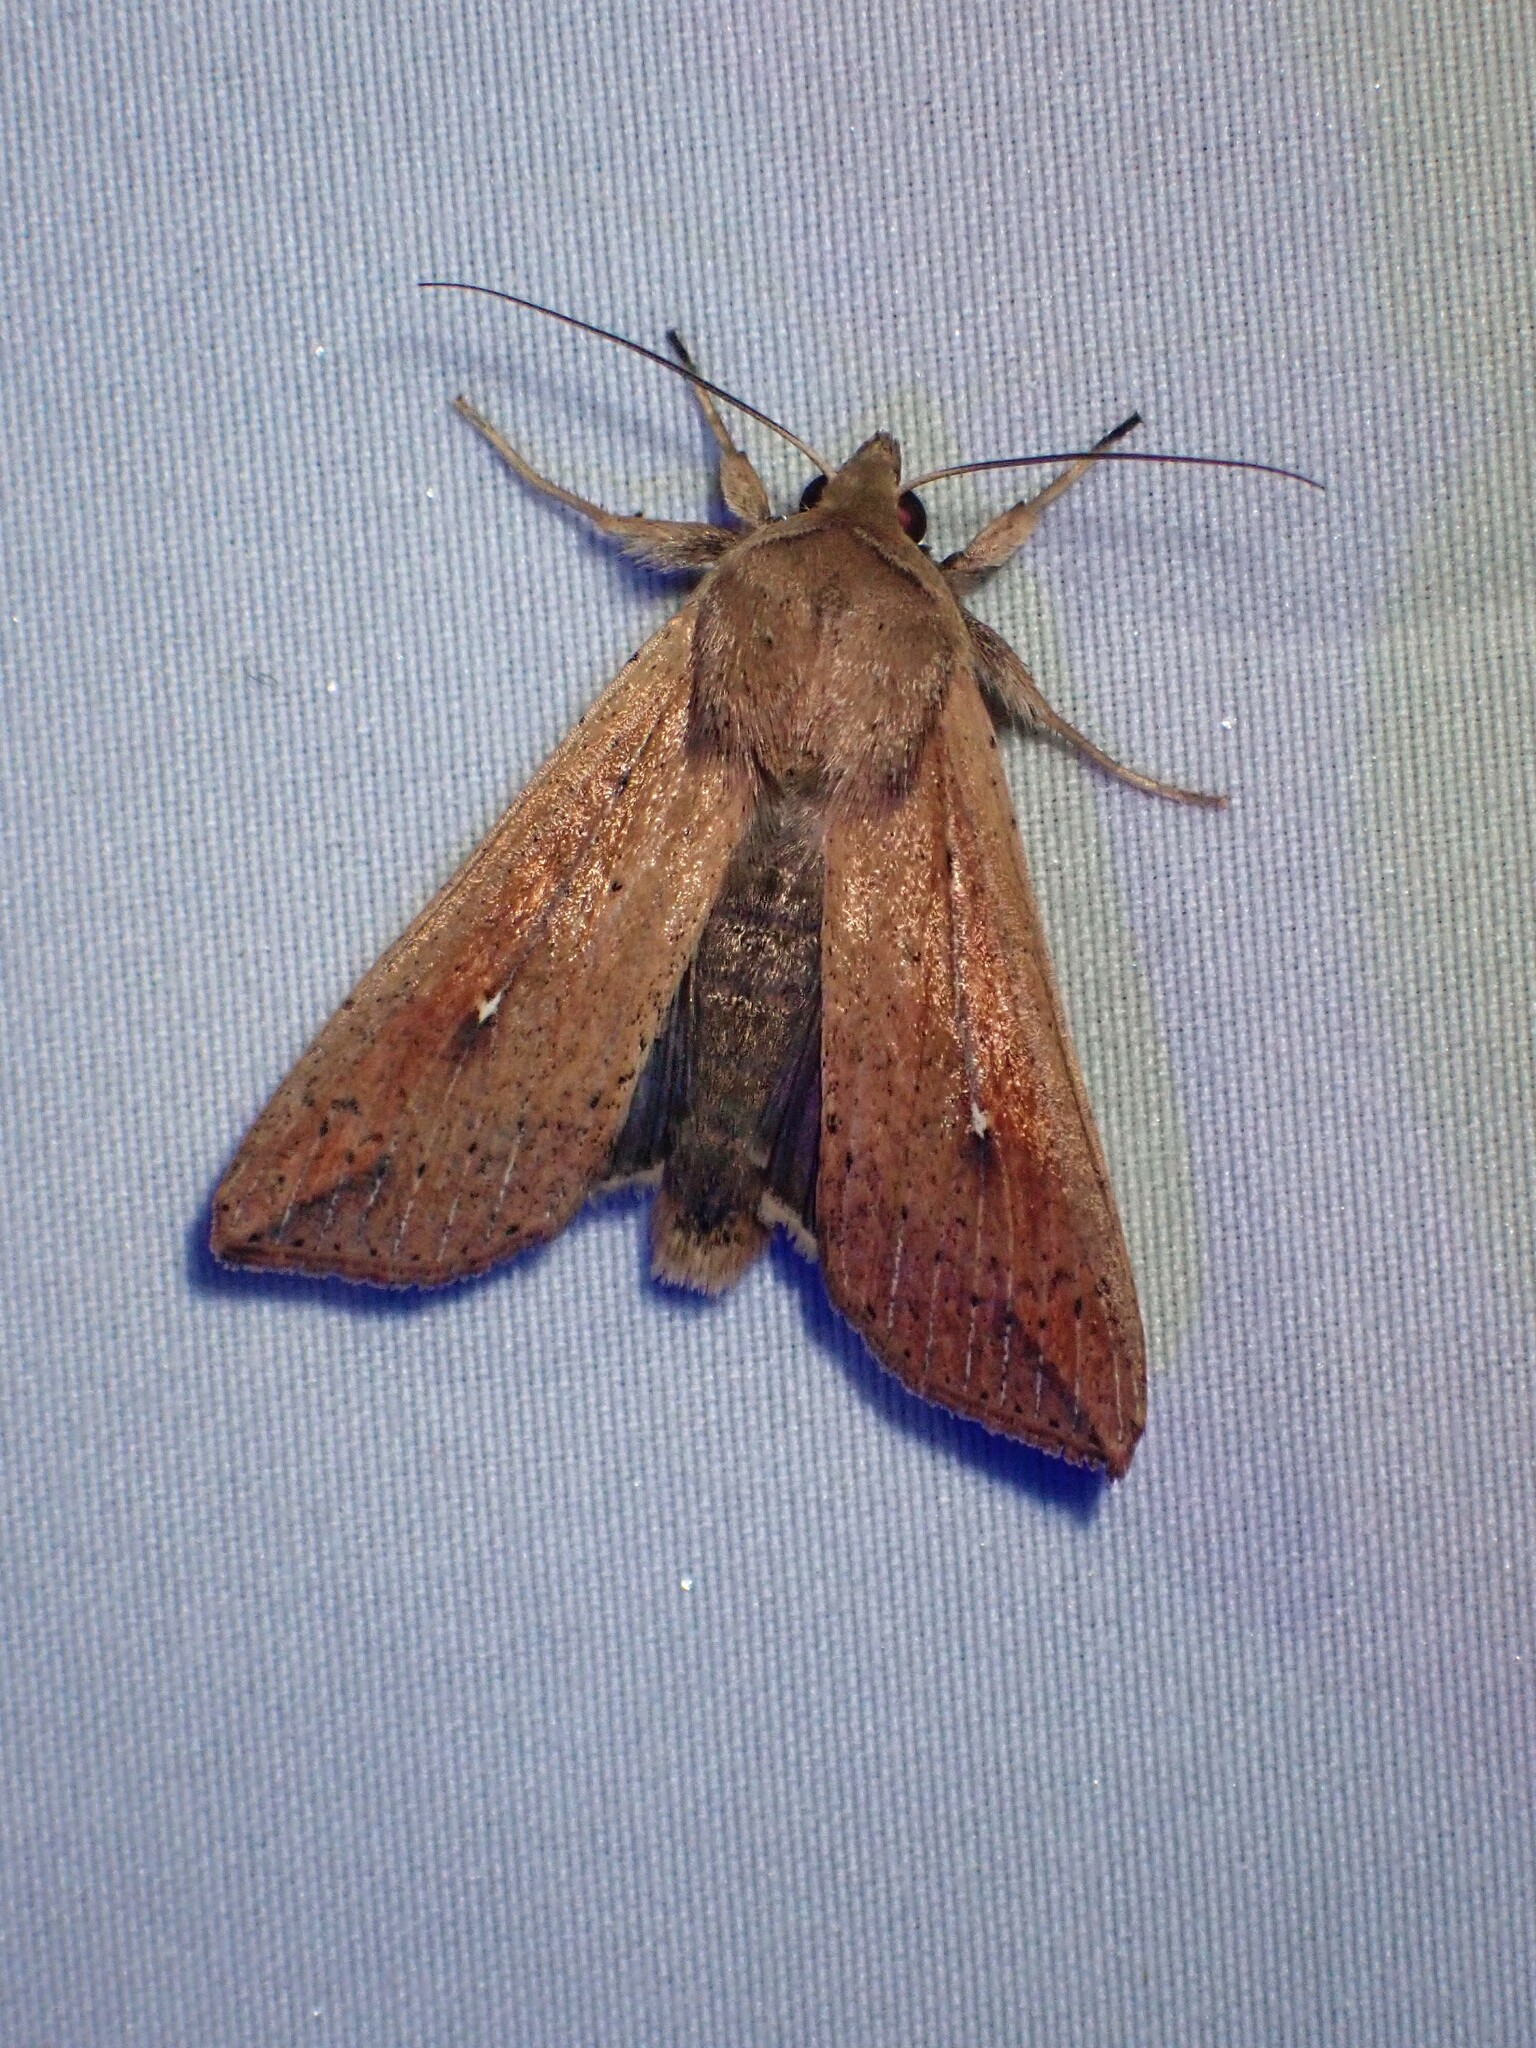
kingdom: Animalia
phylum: Arthropoda
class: Insecta
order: Lepidoptera
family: Noctuidae
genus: Mythimna
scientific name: Mythimna unipuncta
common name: White-speck
